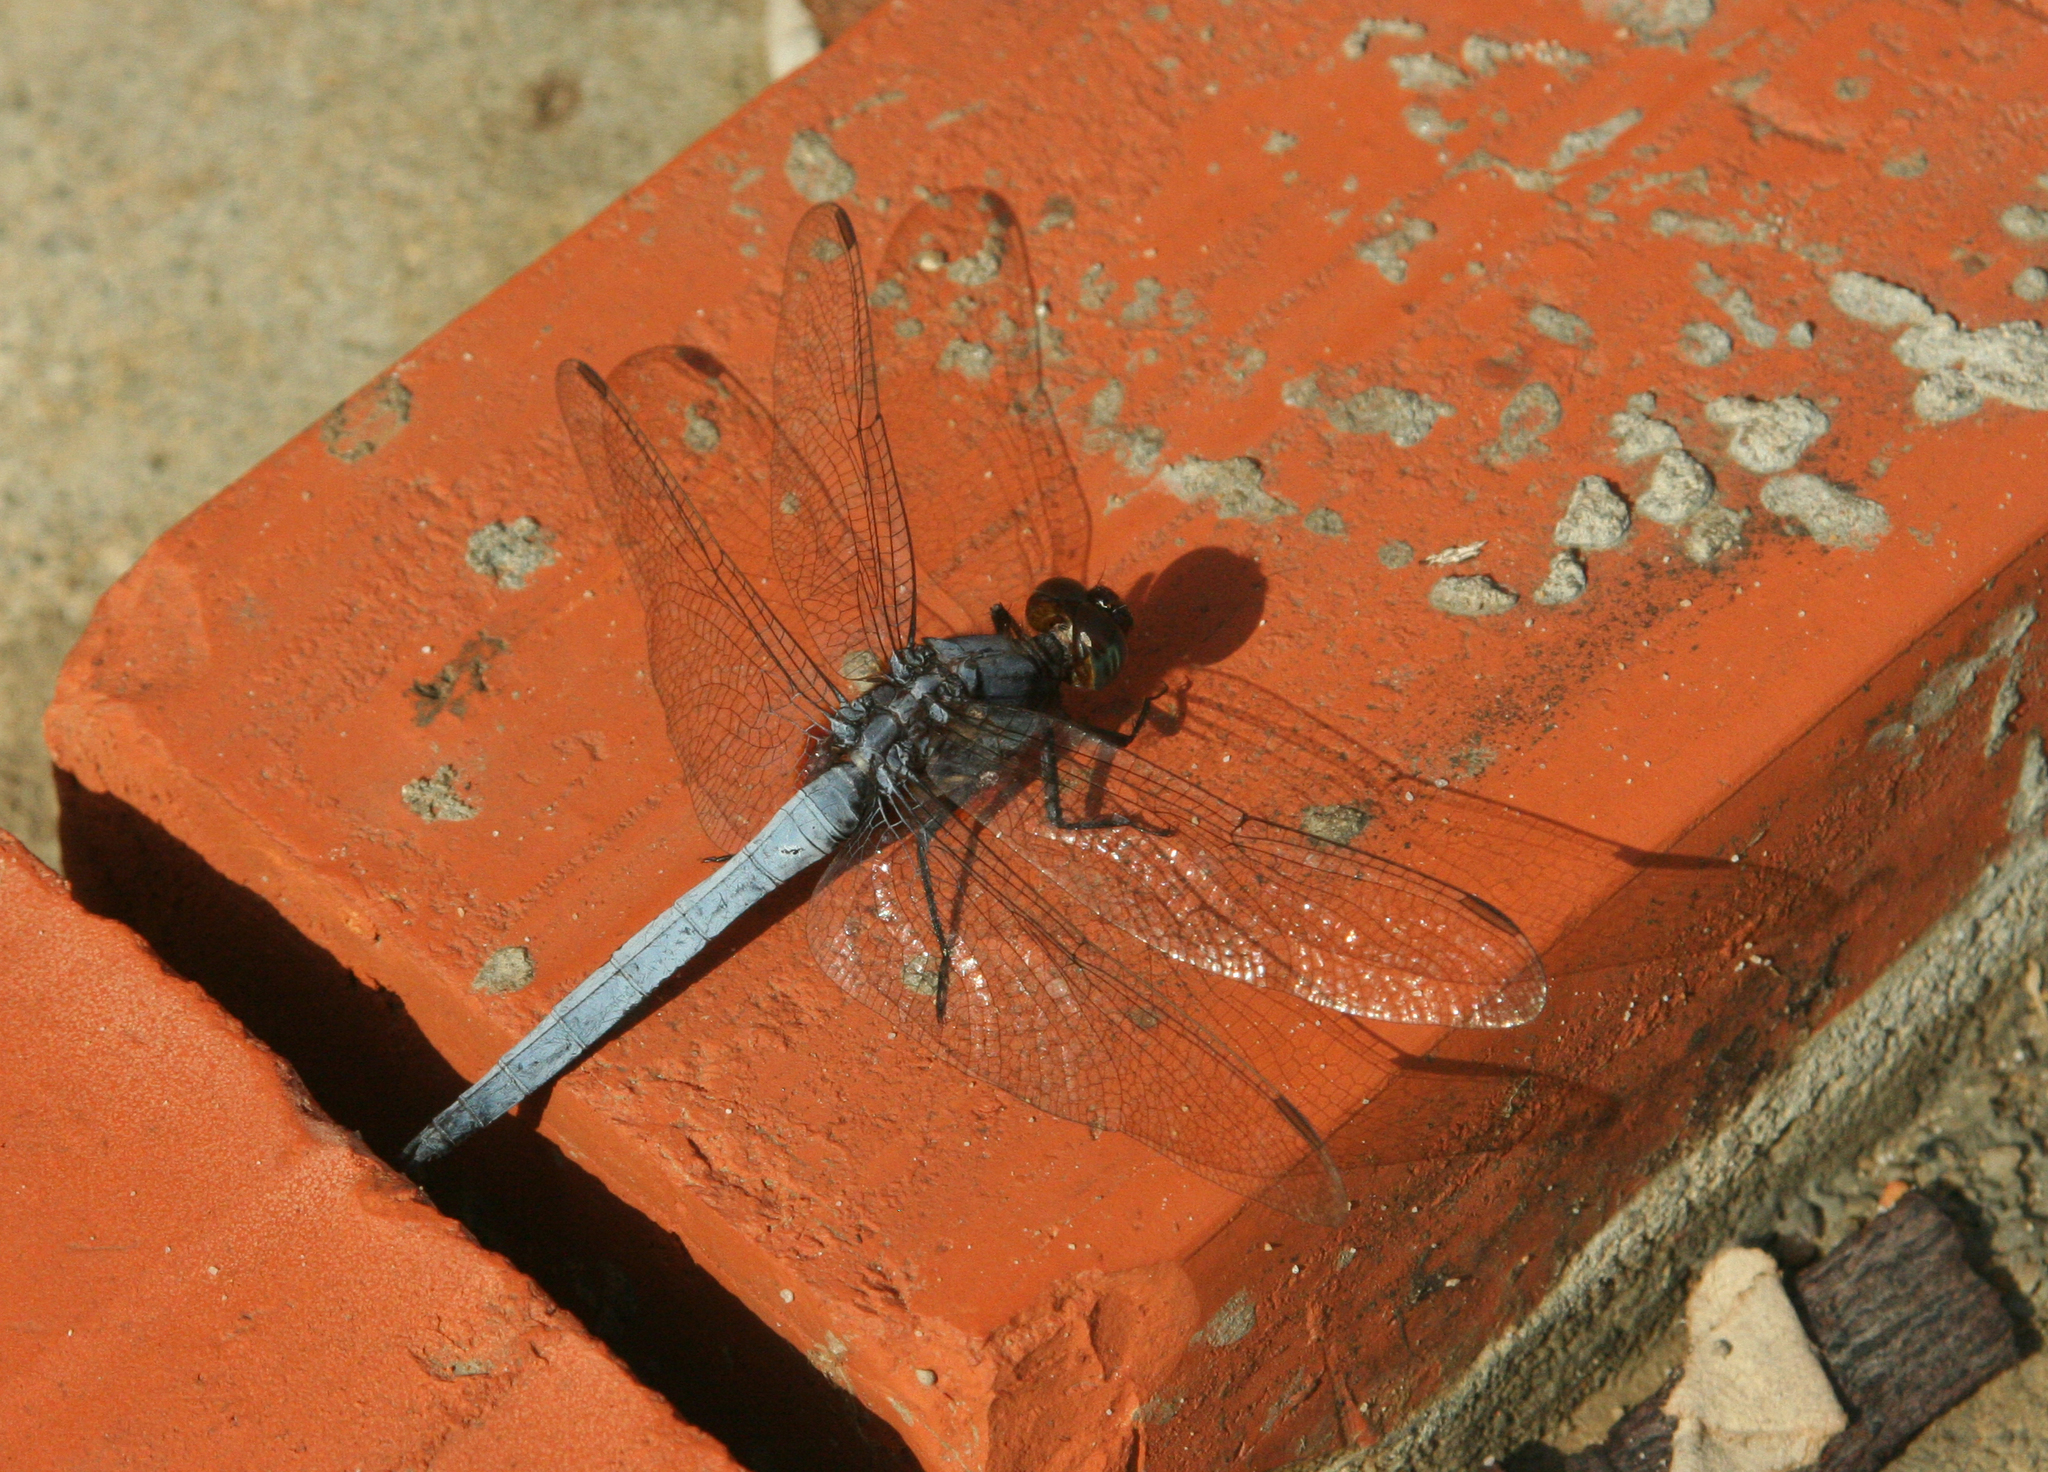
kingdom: Animalia
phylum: Arthropoda
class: Insecta
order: Odonata
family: Libellulidae
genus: Orthetrum
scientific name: Orthetrum glaucum
